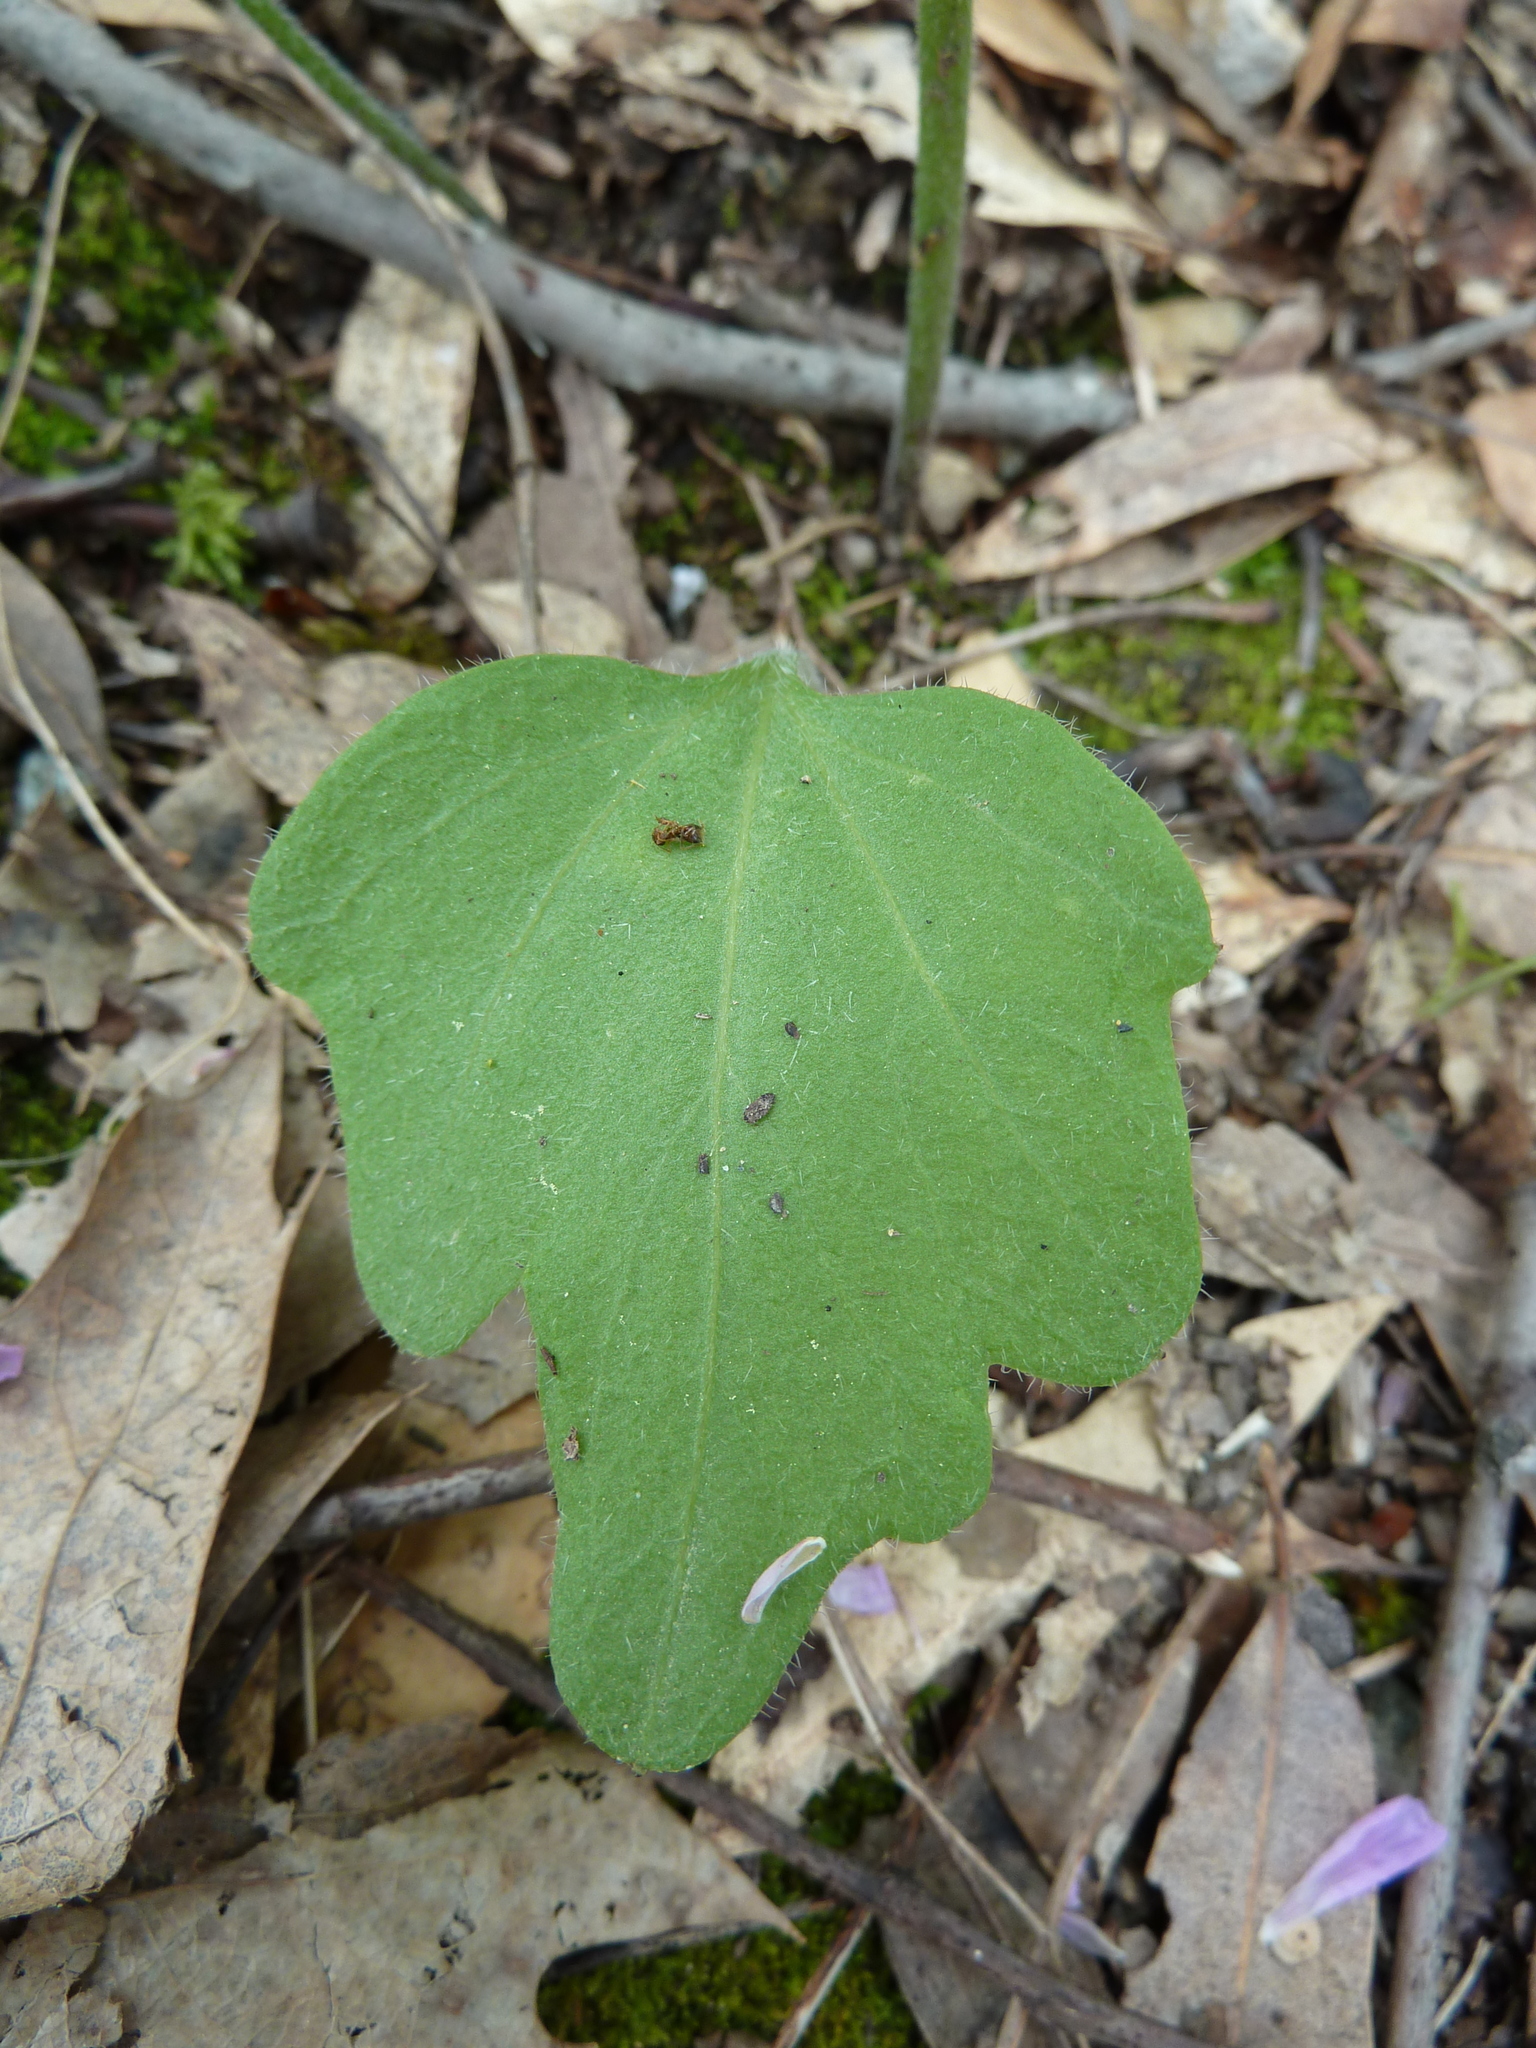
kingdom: Plantae
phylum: Tracheophyta
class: Magnoliopsida
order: Brassicales
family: Brassicaceae
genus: Cardamine
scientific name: Cardamine californica
